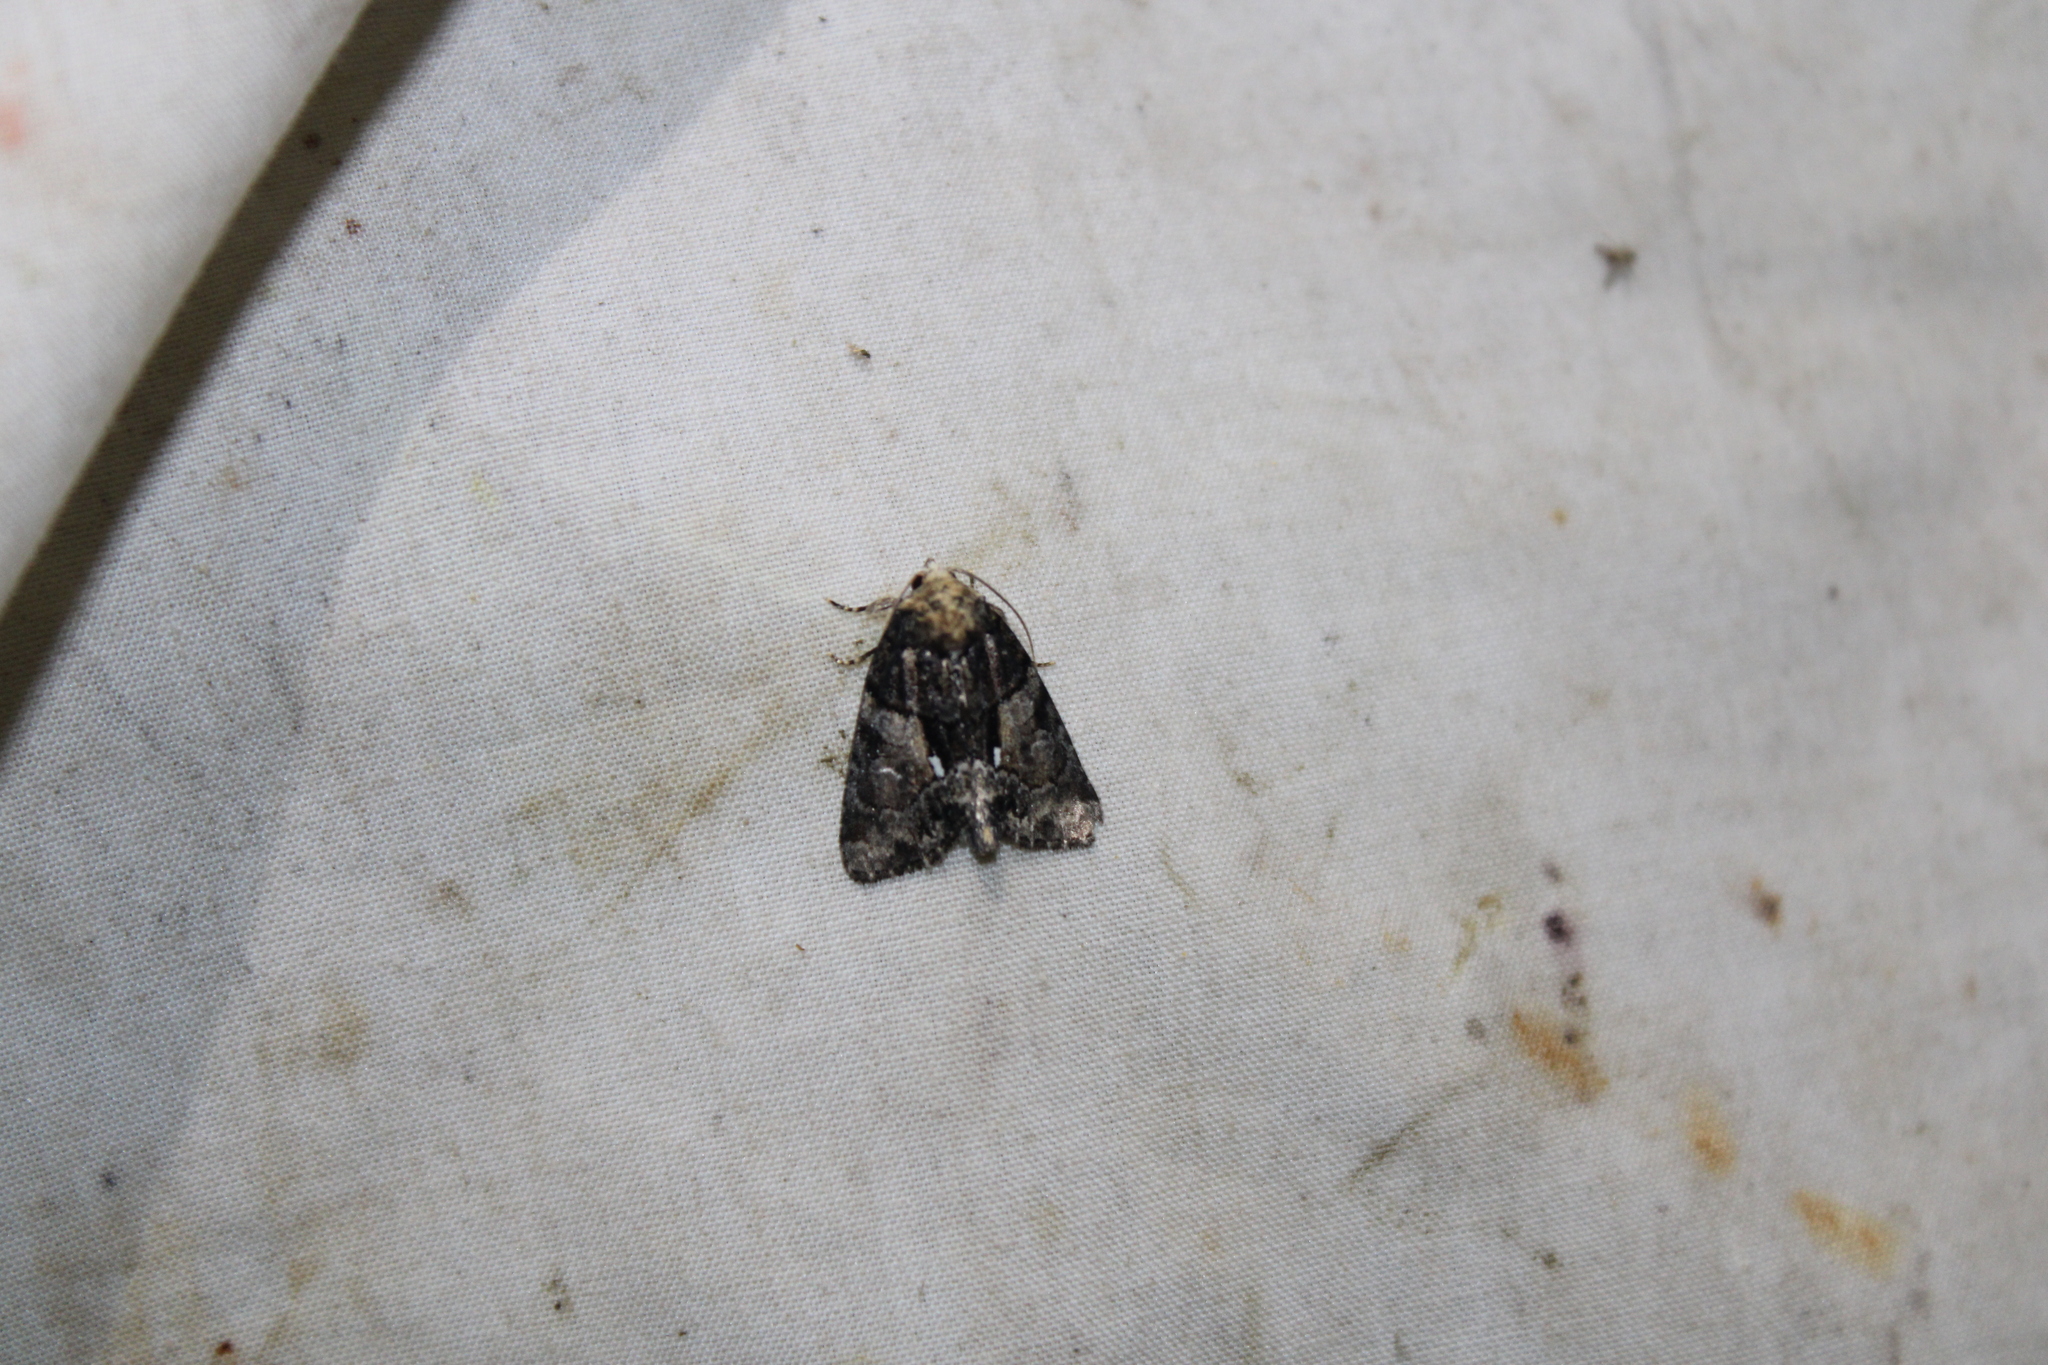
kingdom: Animalia
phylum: Arthropoda
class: Insecta
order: Lepidoptera
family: Noctuidae
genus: Chytonix
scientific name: Chytonix palliatricula
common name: Cloaked marvel
